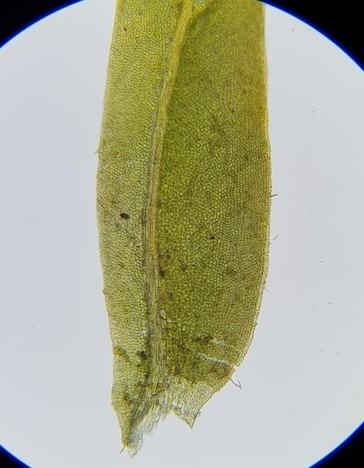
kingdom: Plantae
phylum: Bryophyta
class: Bryopsida
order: Dicranales
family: Fissidentaceae
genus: Fissidens
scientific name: Fissidens taxifolius
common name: Yew-leaved pocket moss
